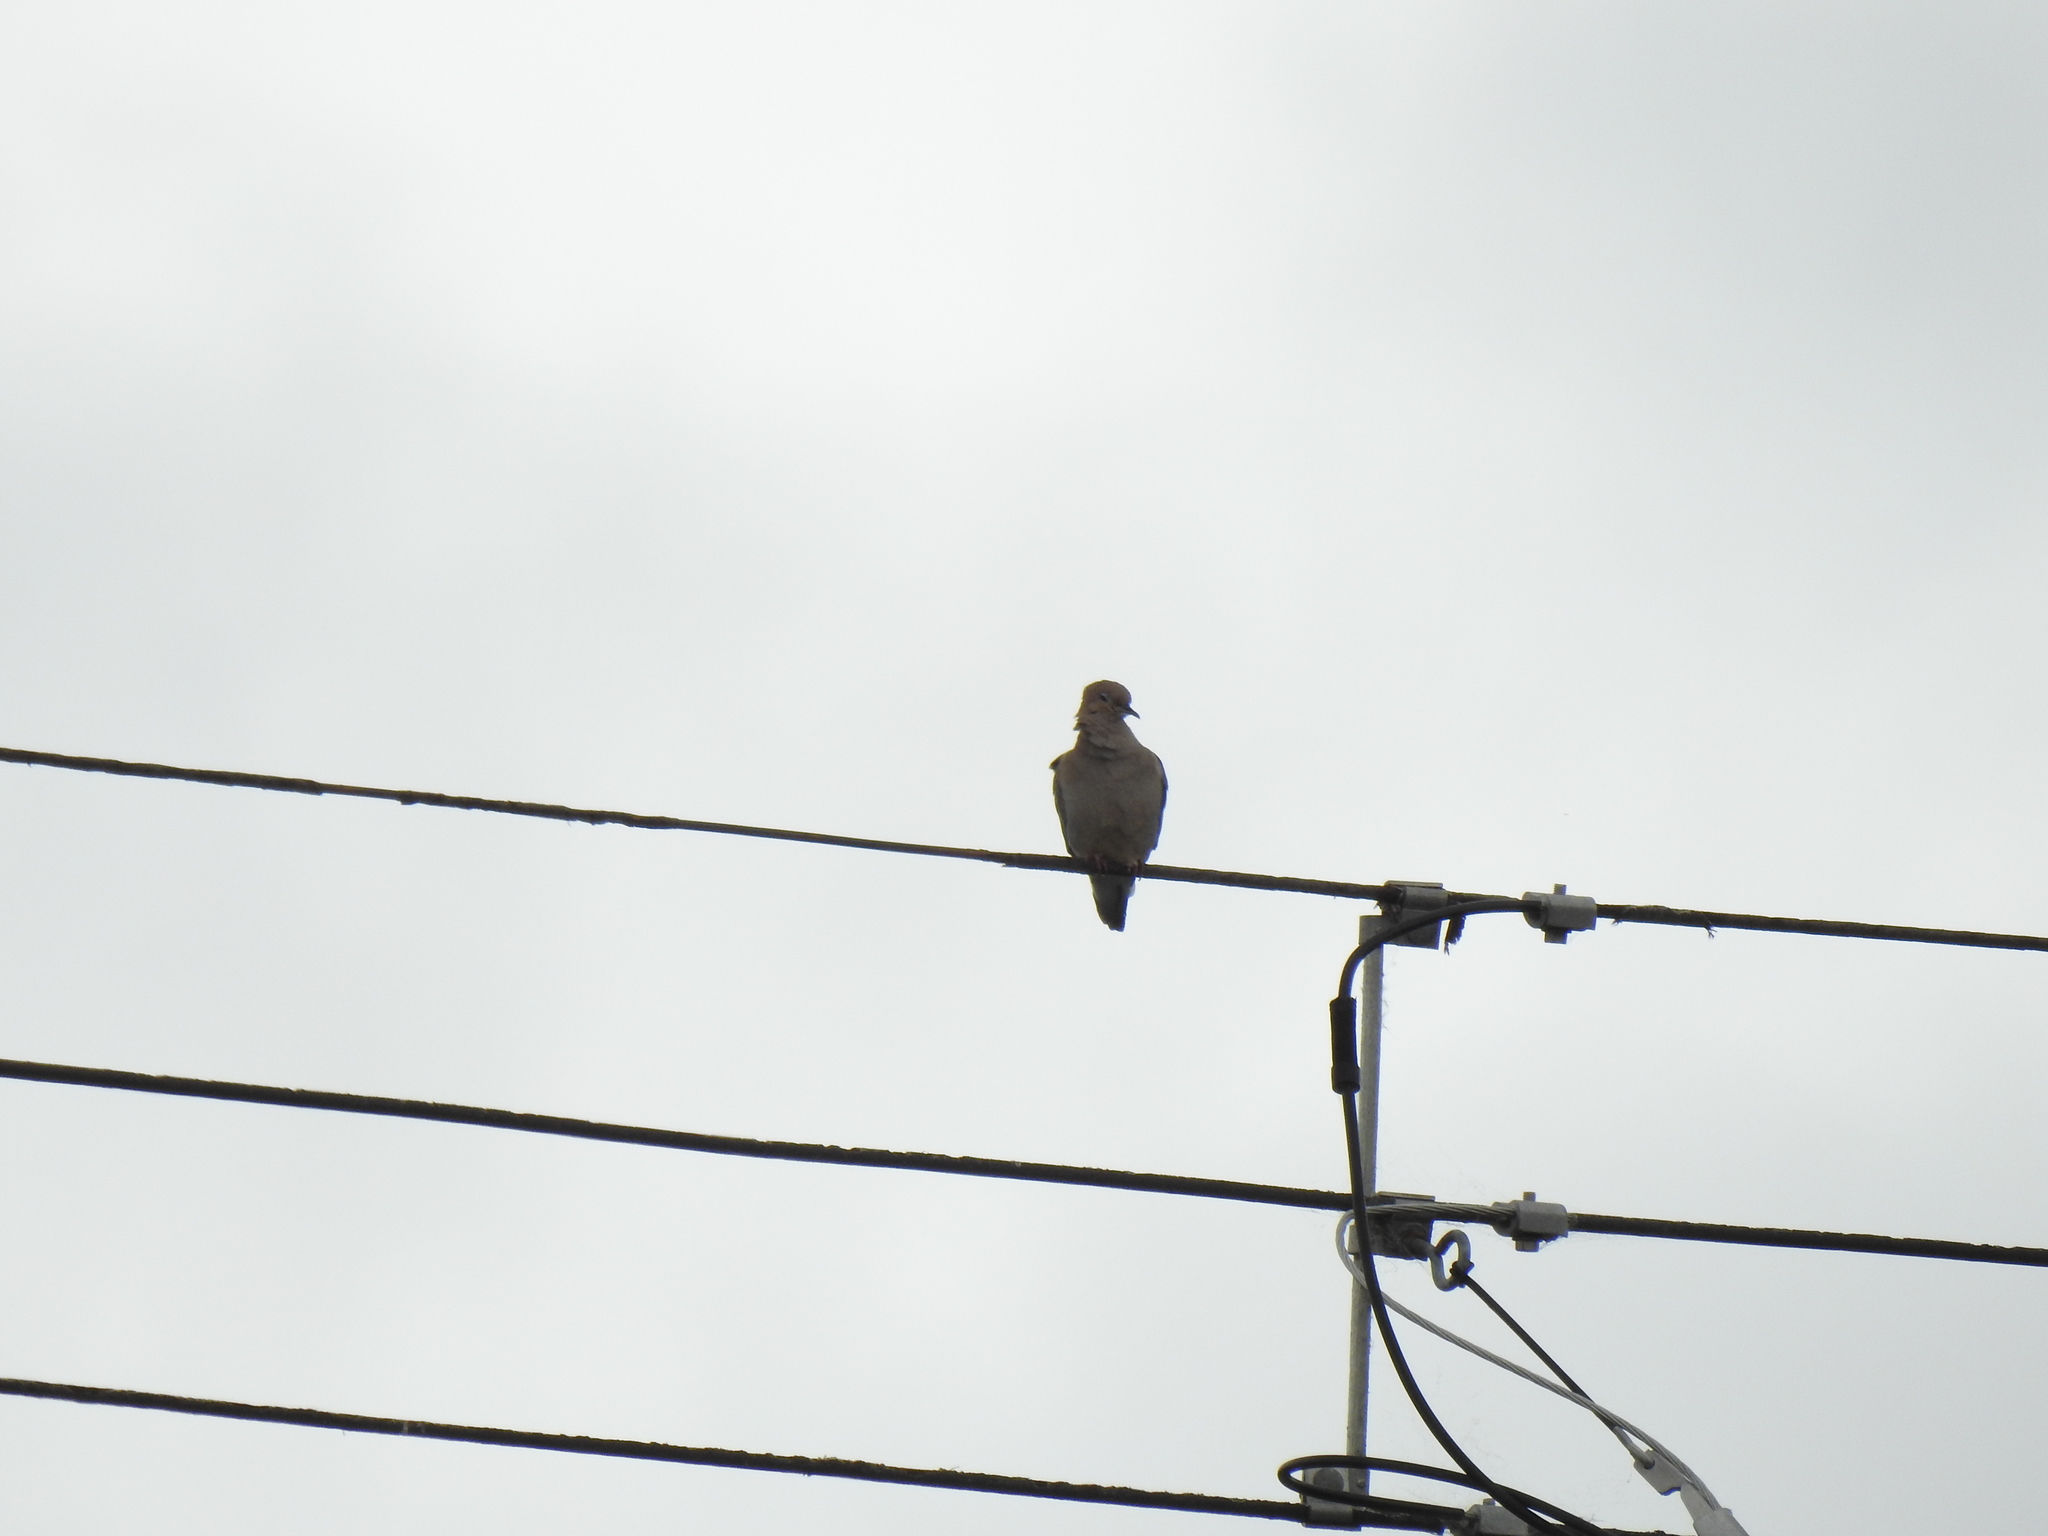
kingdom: Animalia
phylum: Chordata
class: Aves
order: Columbiformes
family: Columbidae
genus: Zenaida
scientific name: Zenaida macroura
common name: Mourning dove
